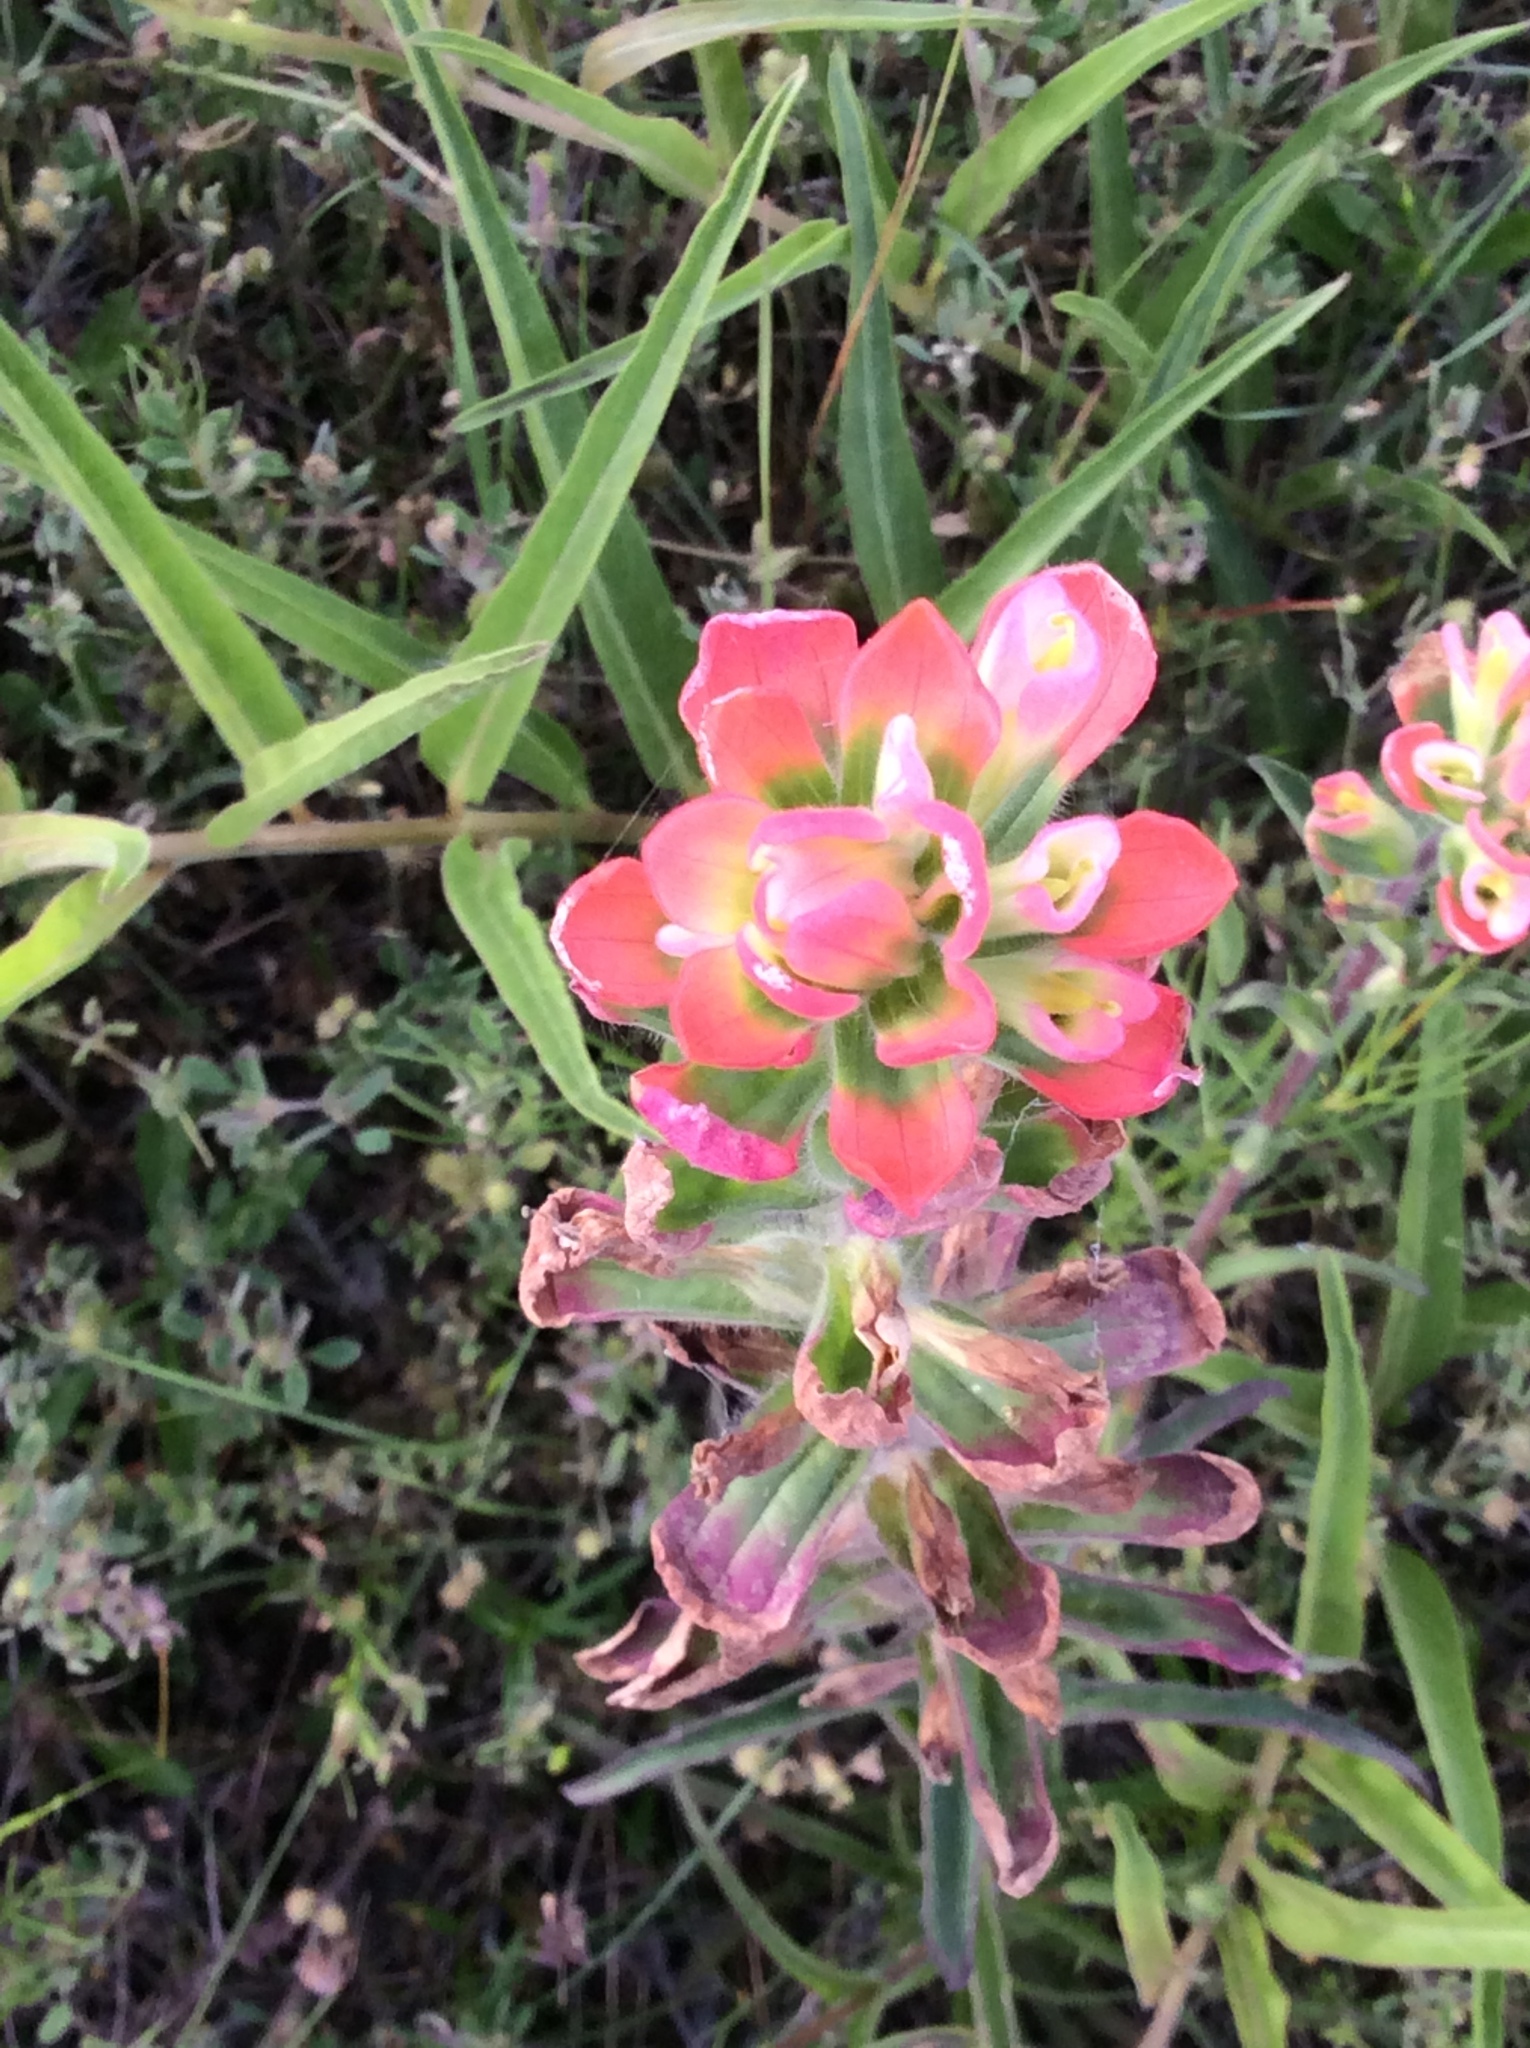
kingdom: Plantae
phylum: Tracheophyta
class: Magnoliopsida
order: Lamiales
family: Orobanchaceae
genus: Castilleja
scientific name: Castilleja indivisa
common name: Texas paintbrush
